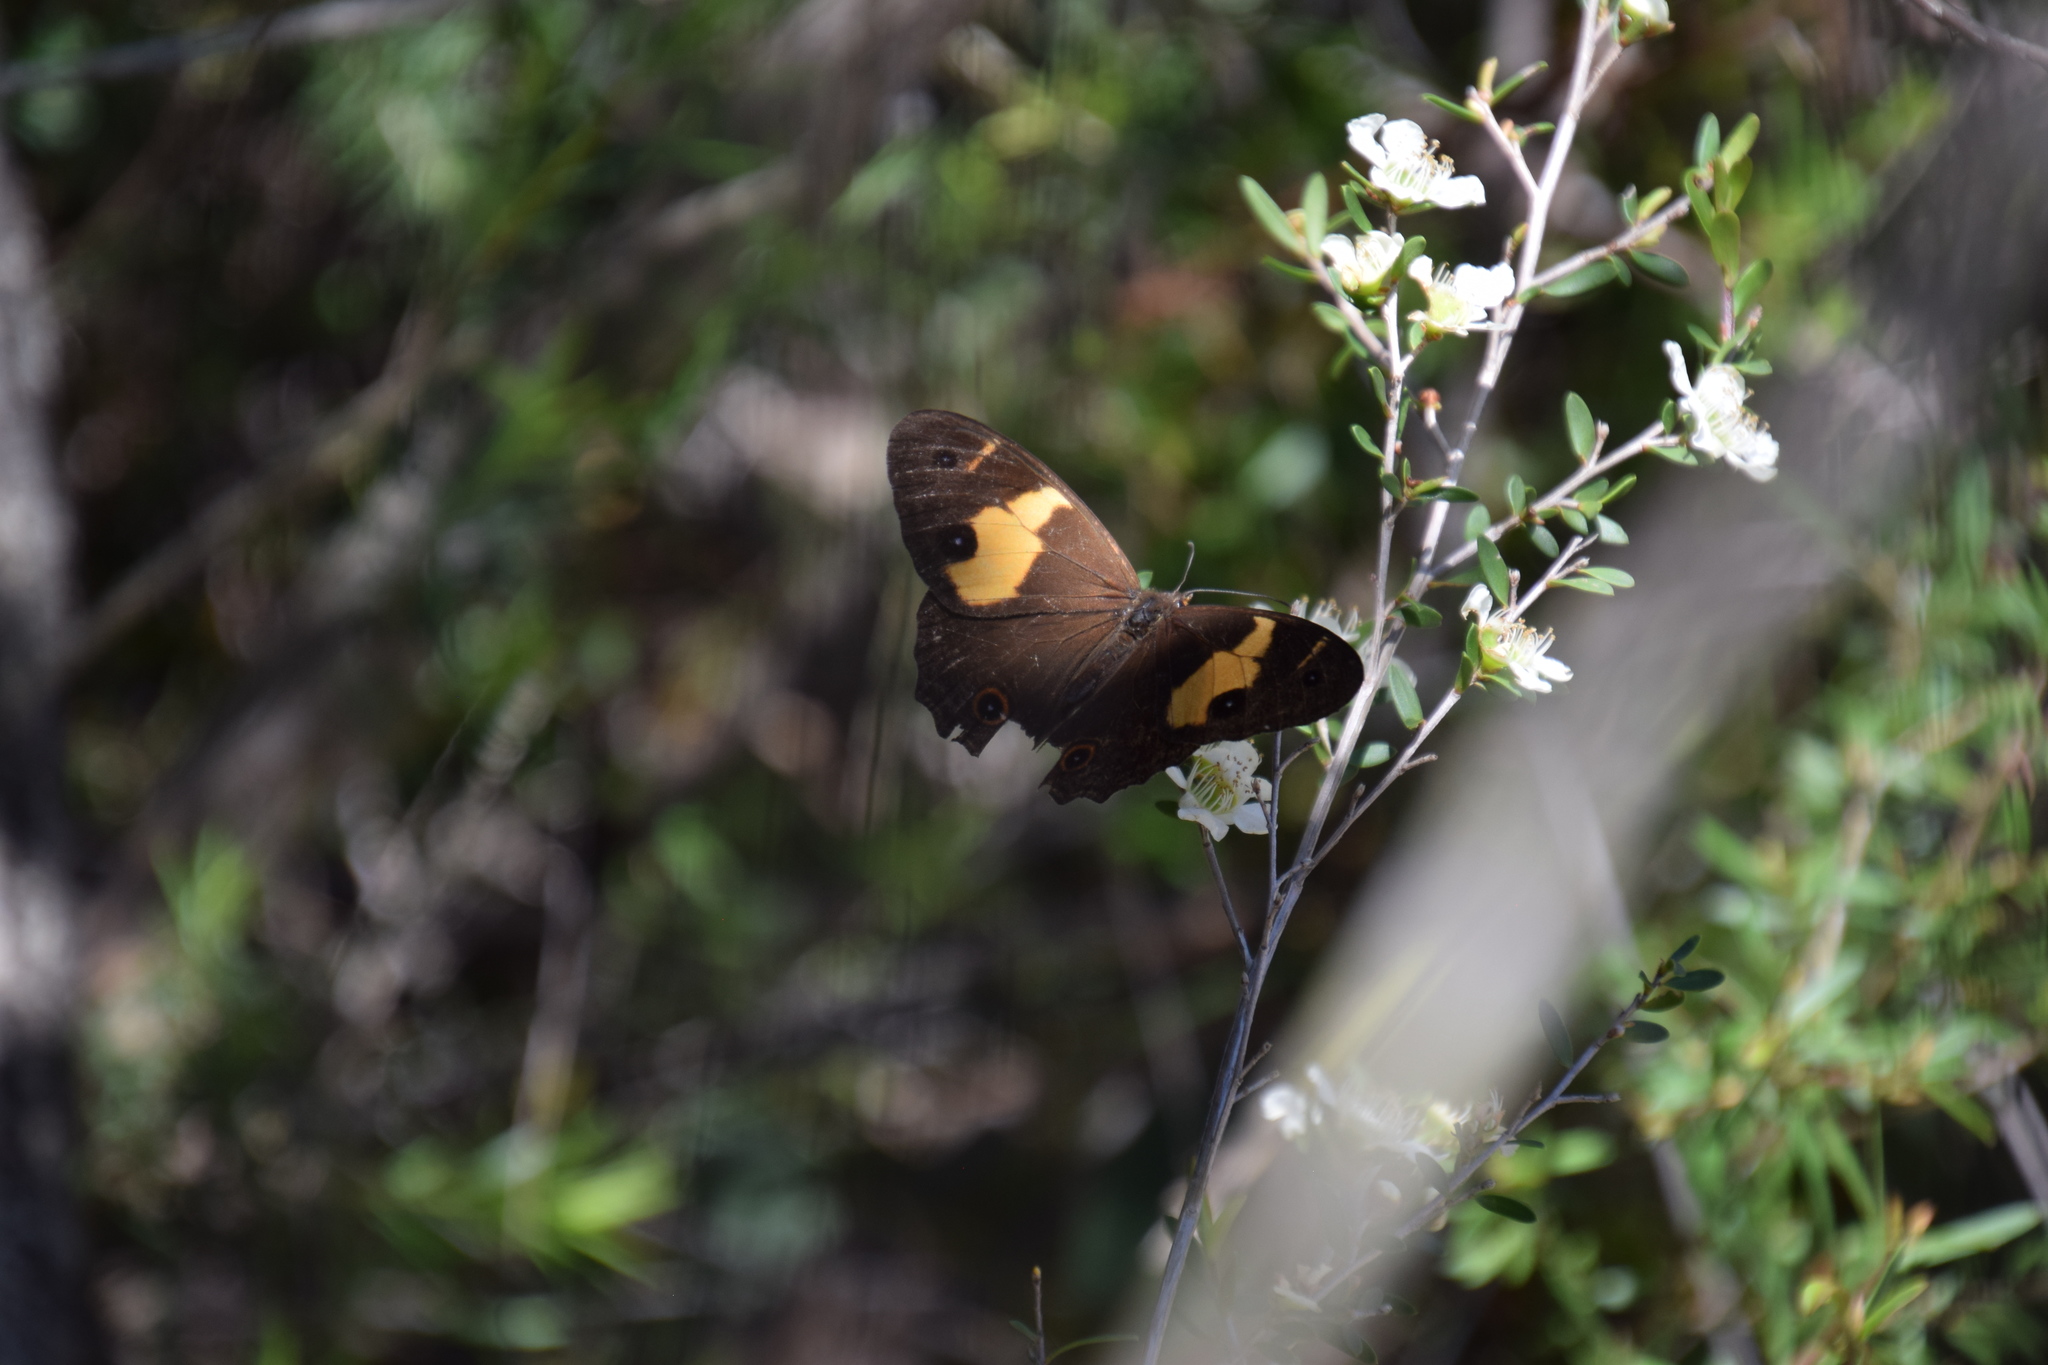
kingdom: Animalia
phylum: Arthropoda
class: Insecta
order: Lepidoptera
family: Nymphalidae
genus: Tisiphone
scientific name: Tisiphone abeona
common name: Swordgrass brown
